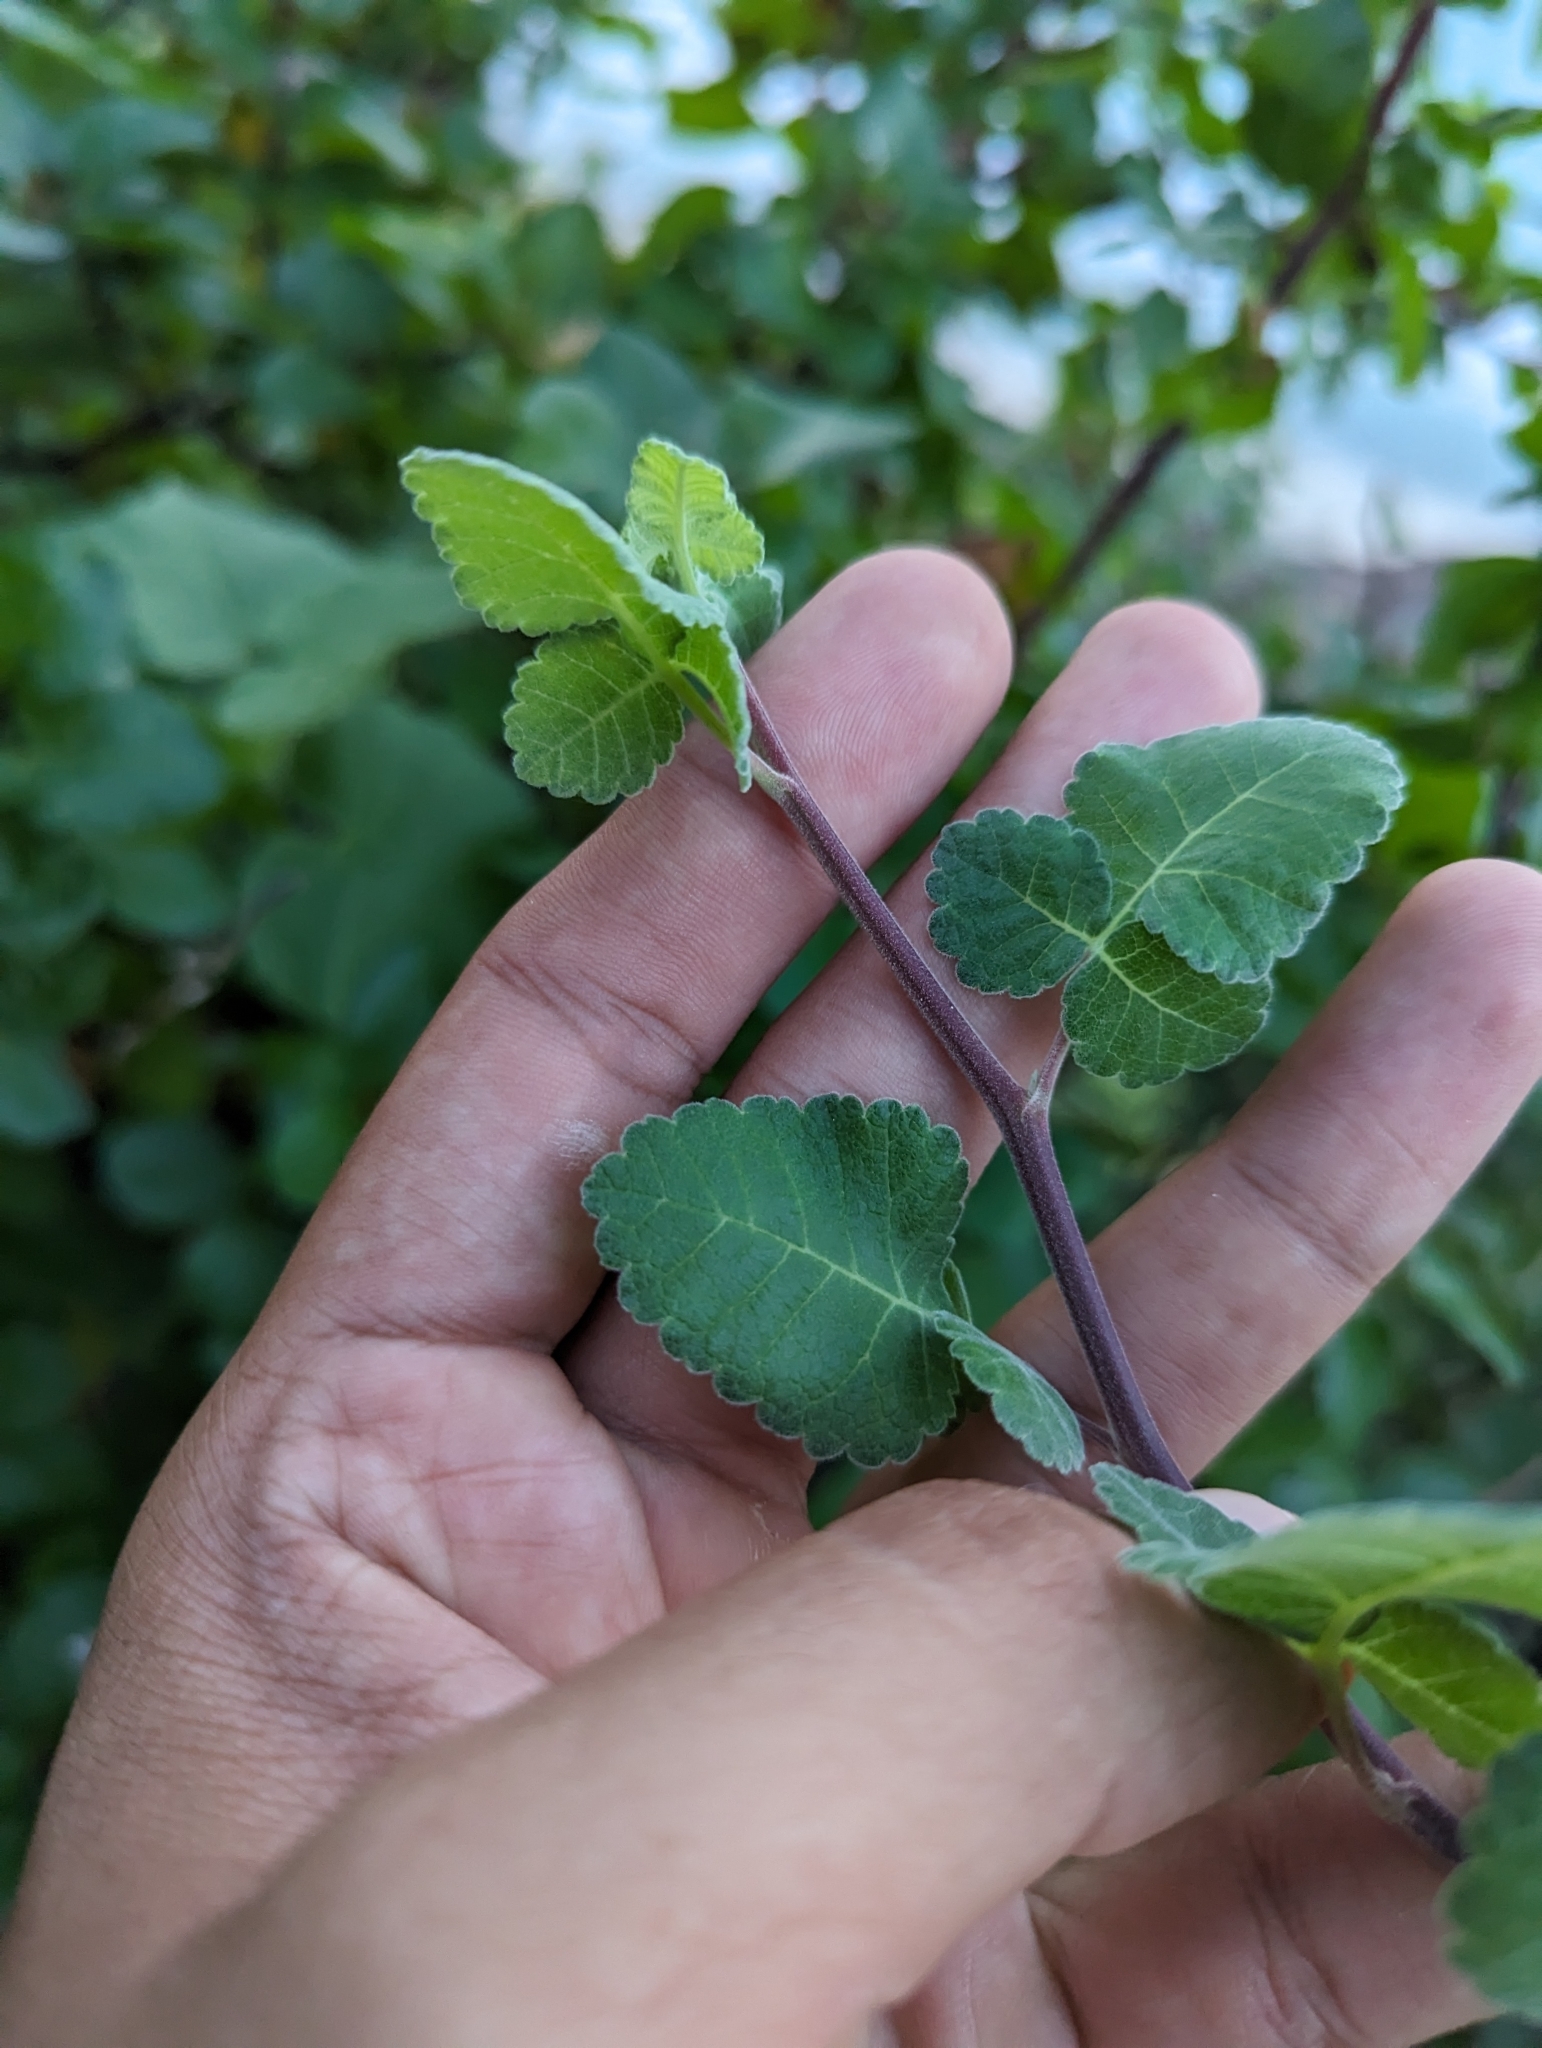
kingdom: Plantae
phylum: Tracheophyta
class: Magnoliopsida
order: Sapindales
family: Burseraceae
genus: Bursera
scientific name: Bursera hindsiana
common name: Red elephant tree
